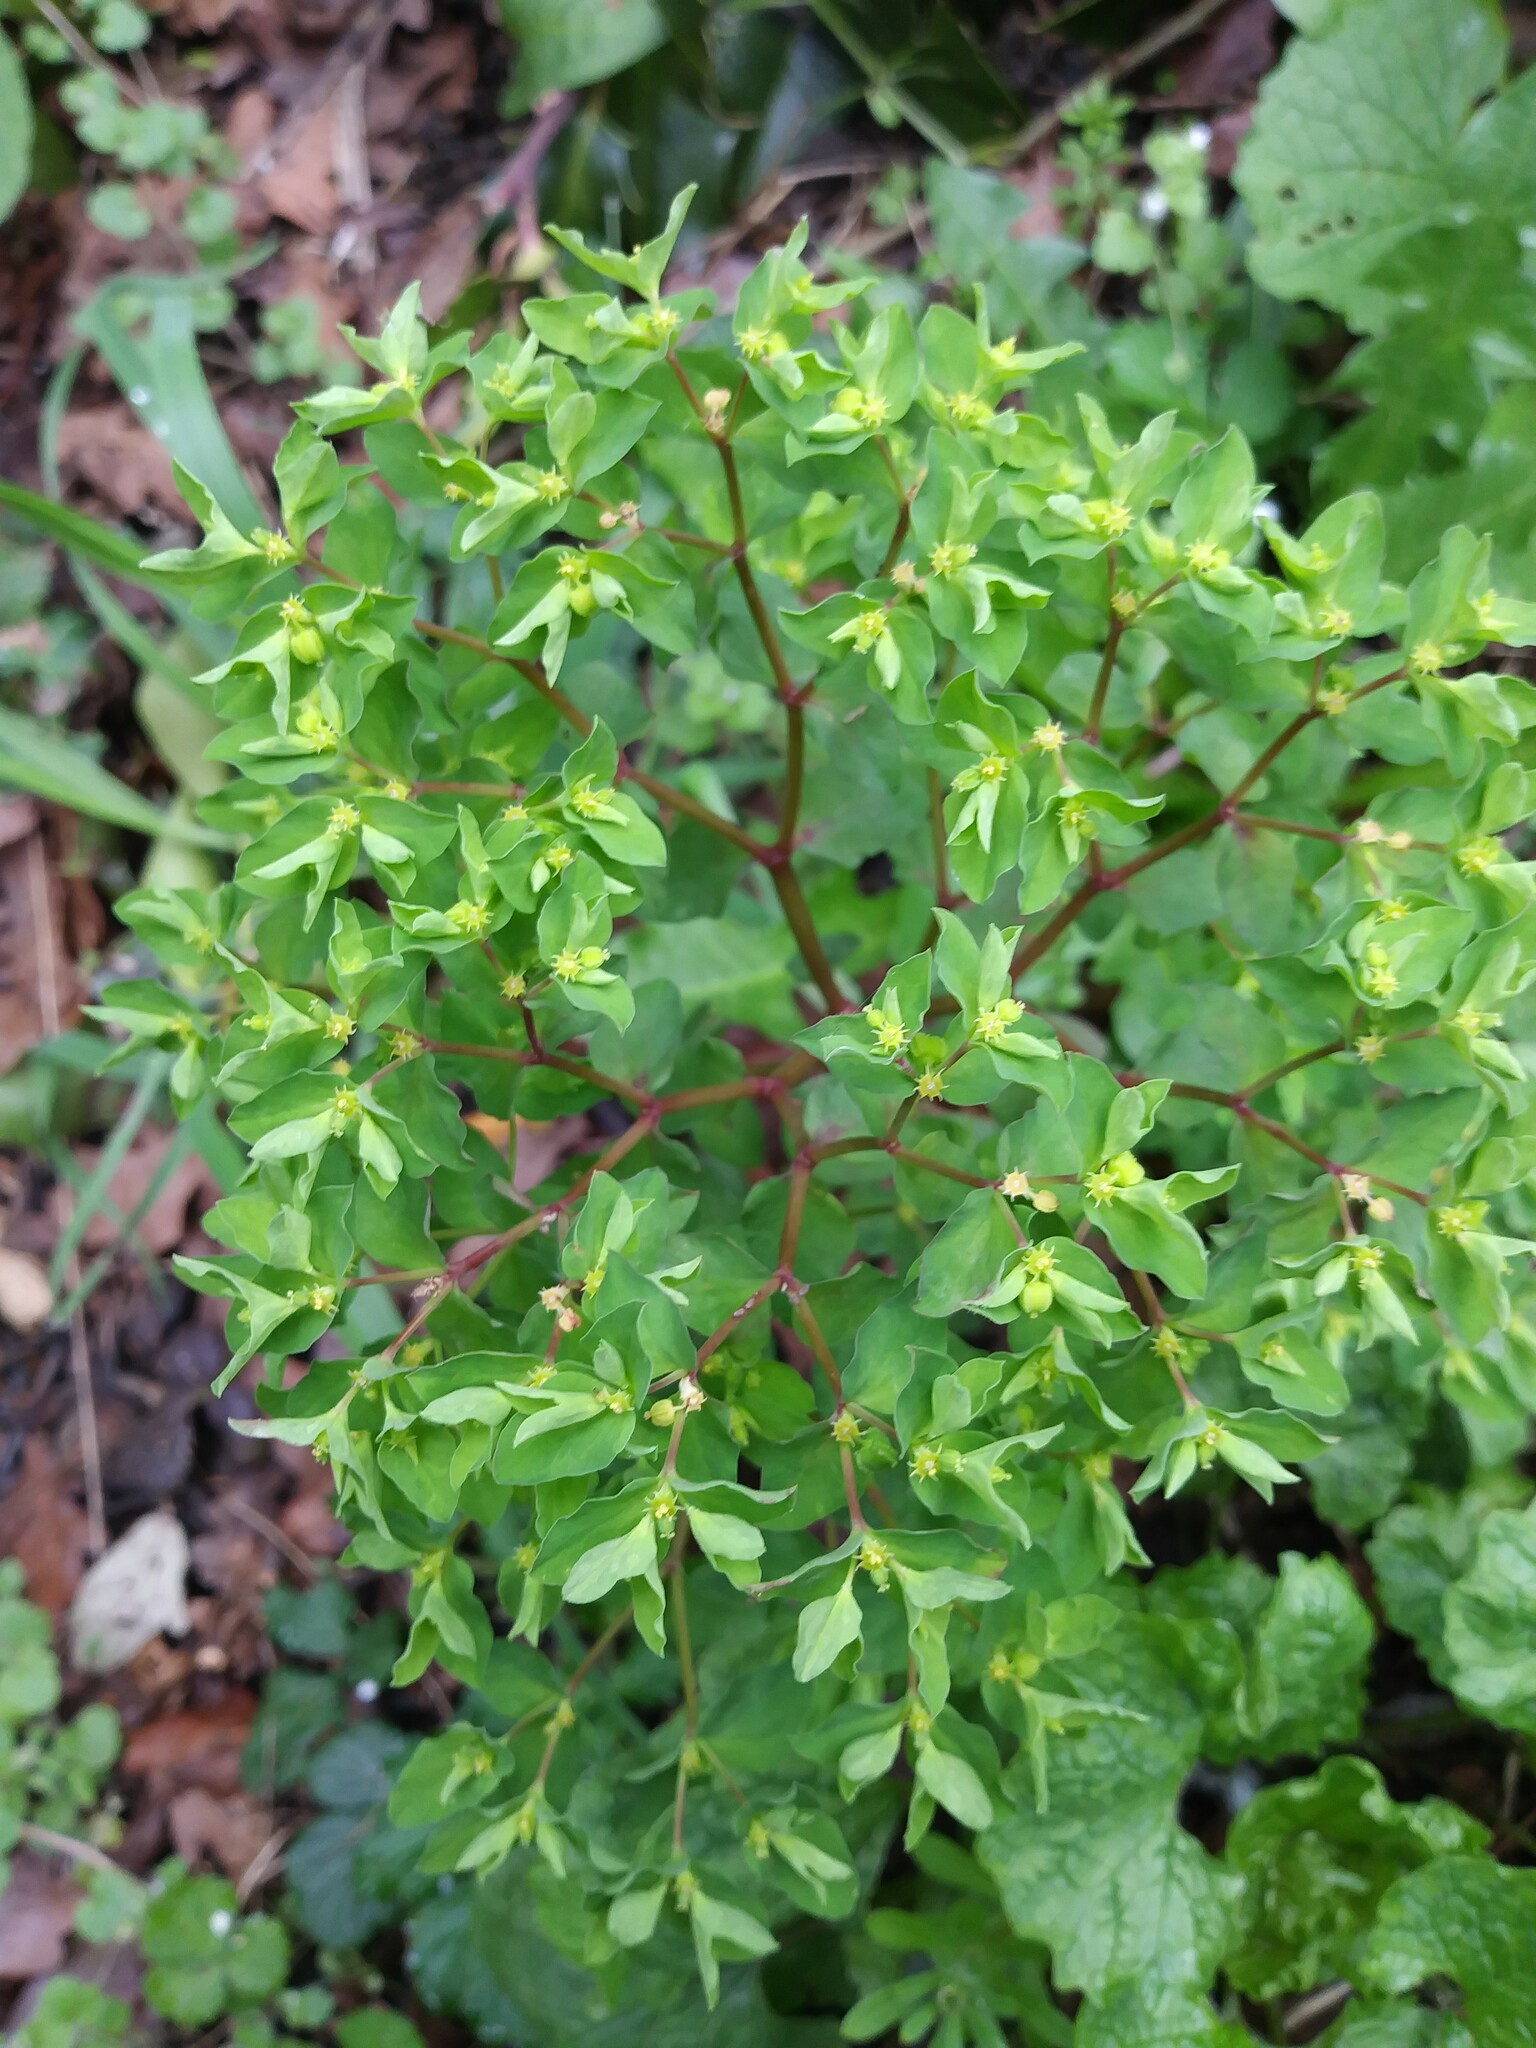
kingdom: Plantae
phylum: Tracheophyta
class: Magnoliopsida
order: Malpighiales
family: Euphorbiaceae
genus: Euphorbia
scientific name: Euphorbia peplus
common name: Petty spurge
